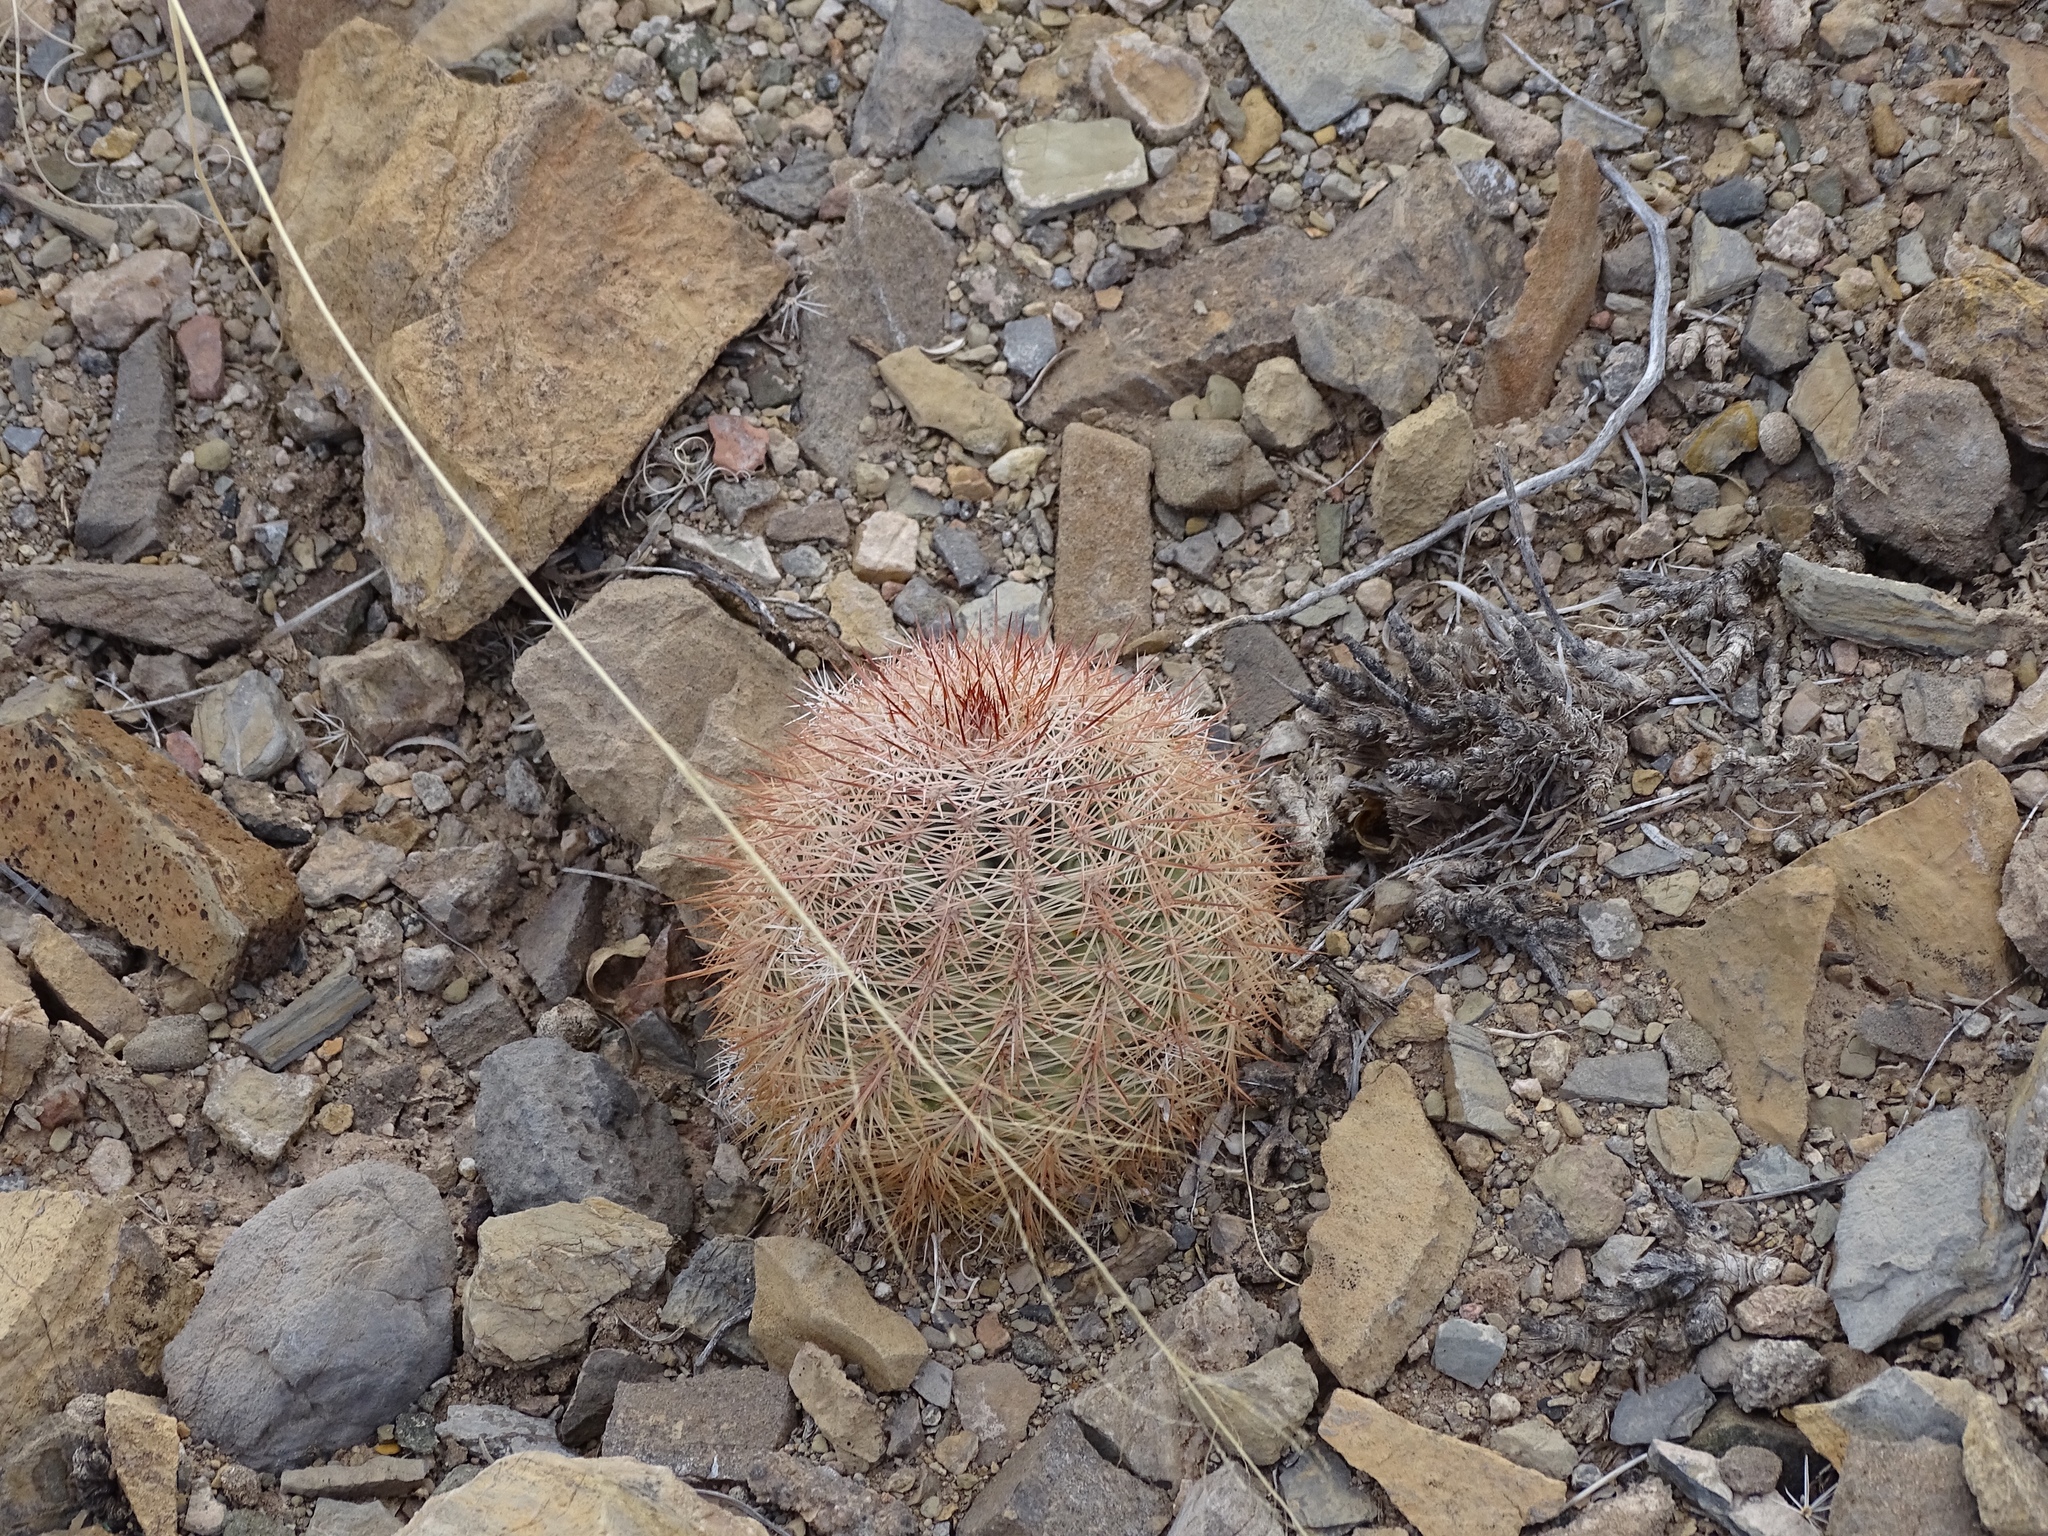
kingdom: Plantae
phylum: Tracheophyta
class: Magnoliopsida
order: Caryophyllales
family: Cactaceae
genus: Echinocereus
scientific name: Echinocereus dasyacanthus
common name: Spiny hedgehog cactus
